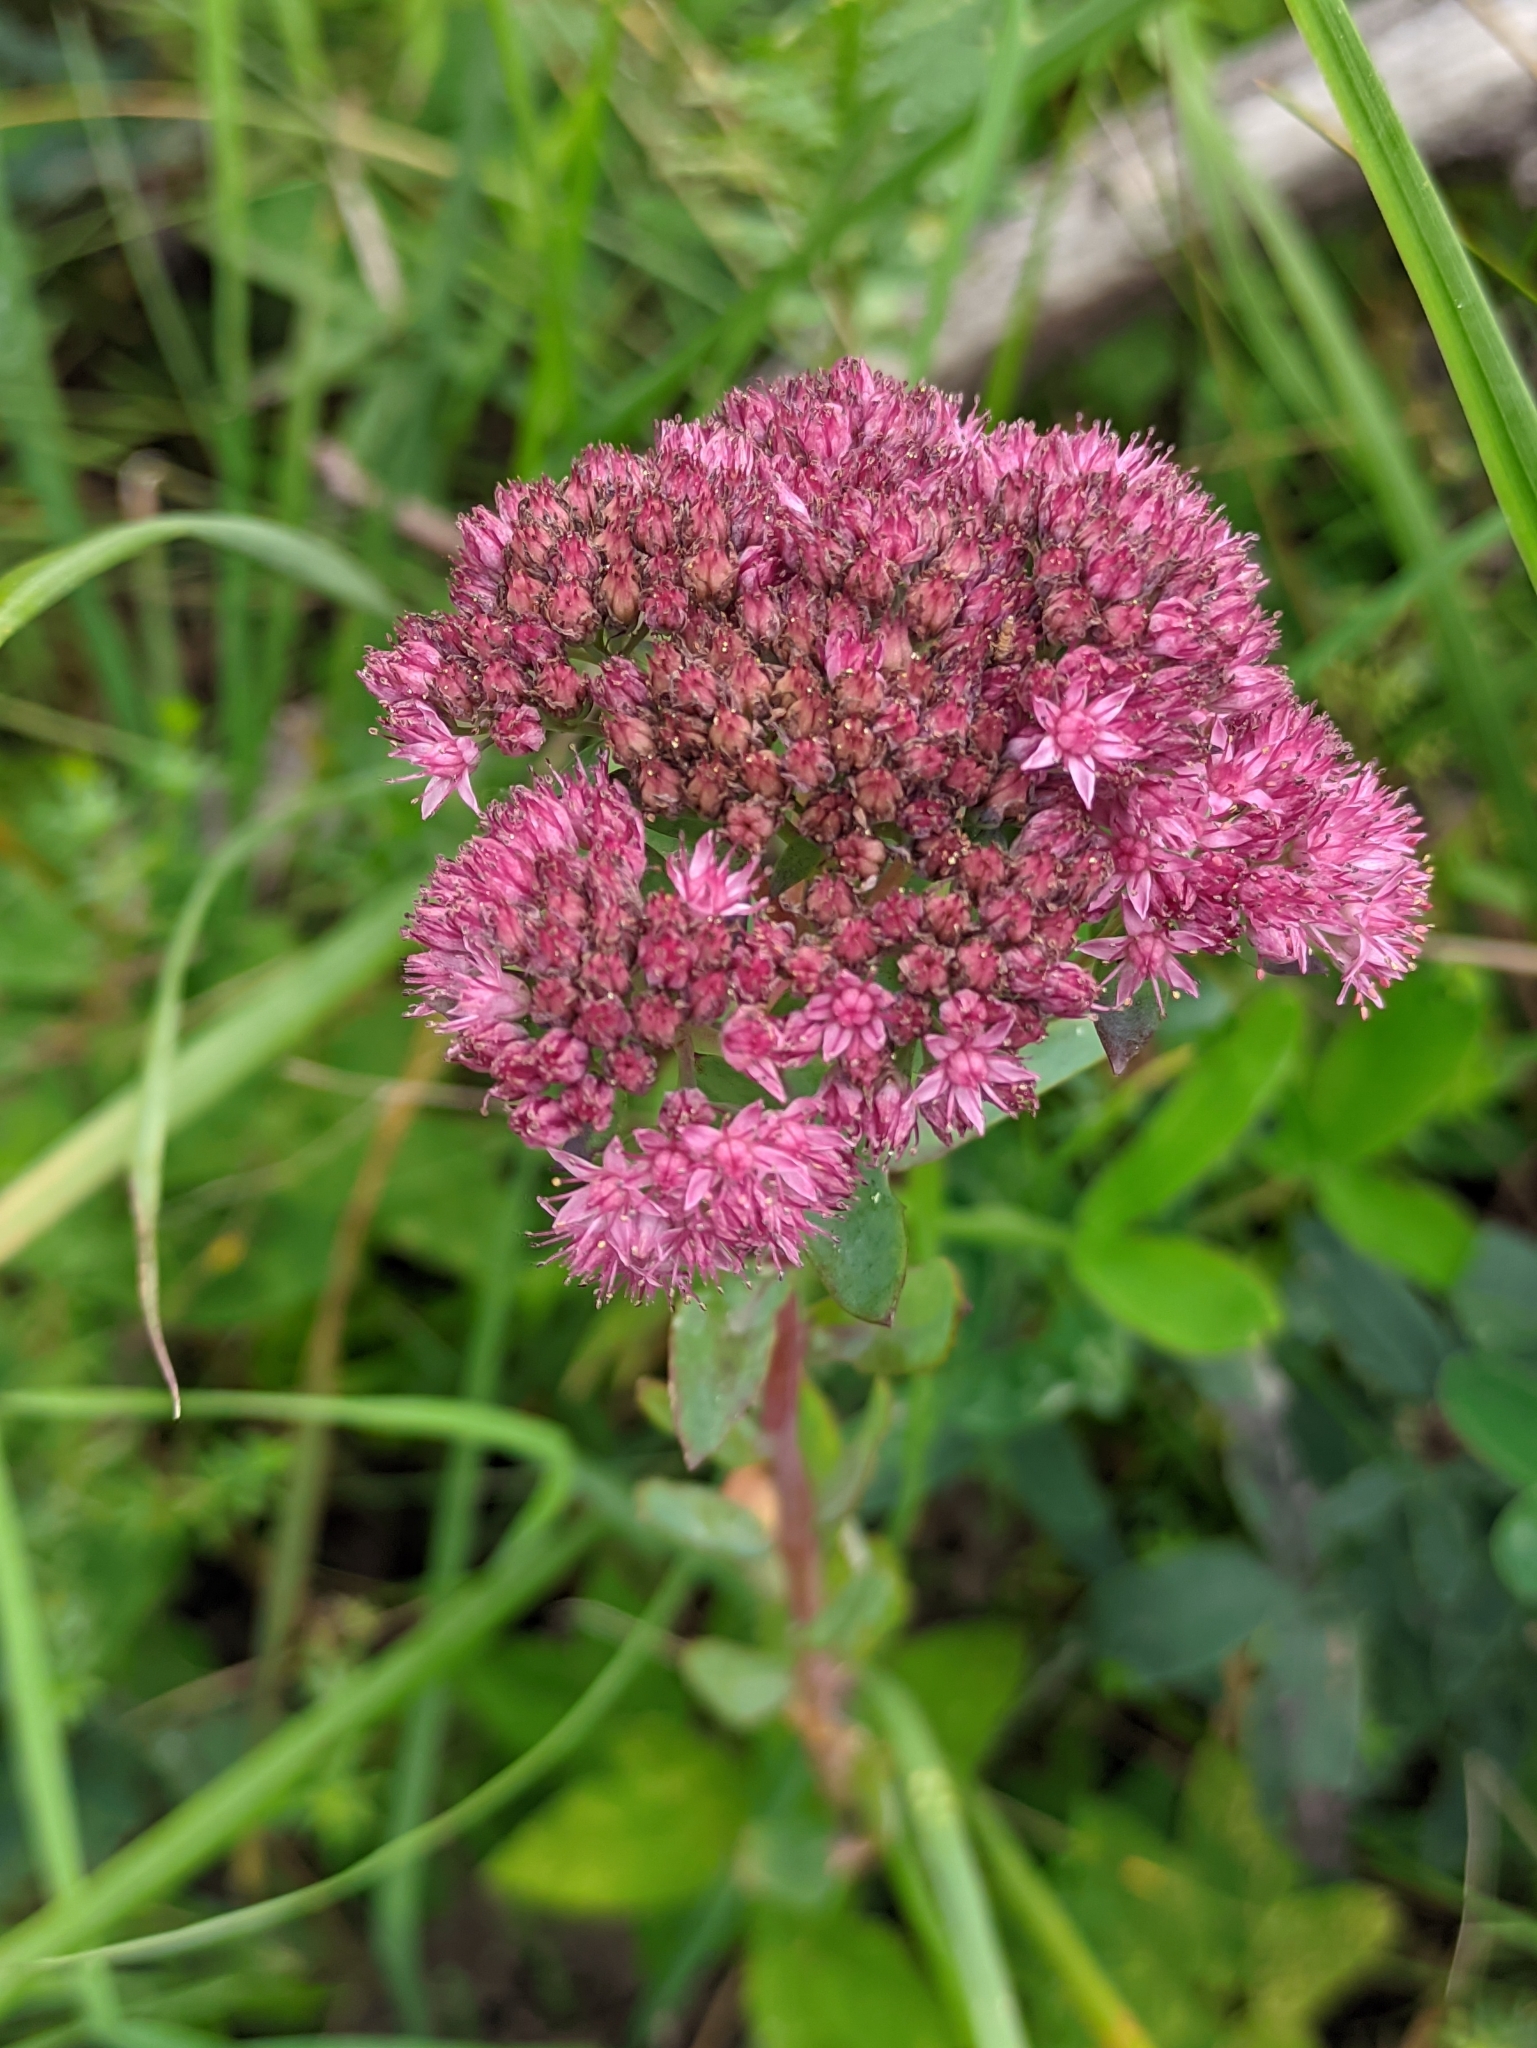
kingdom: Plantae
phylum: Tracheophyta
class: Magnoliopsida
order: Saxifragales
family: Crassulaceae
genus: Hylotelephium
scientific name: Hylotelephium telephium
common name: Live-forever
